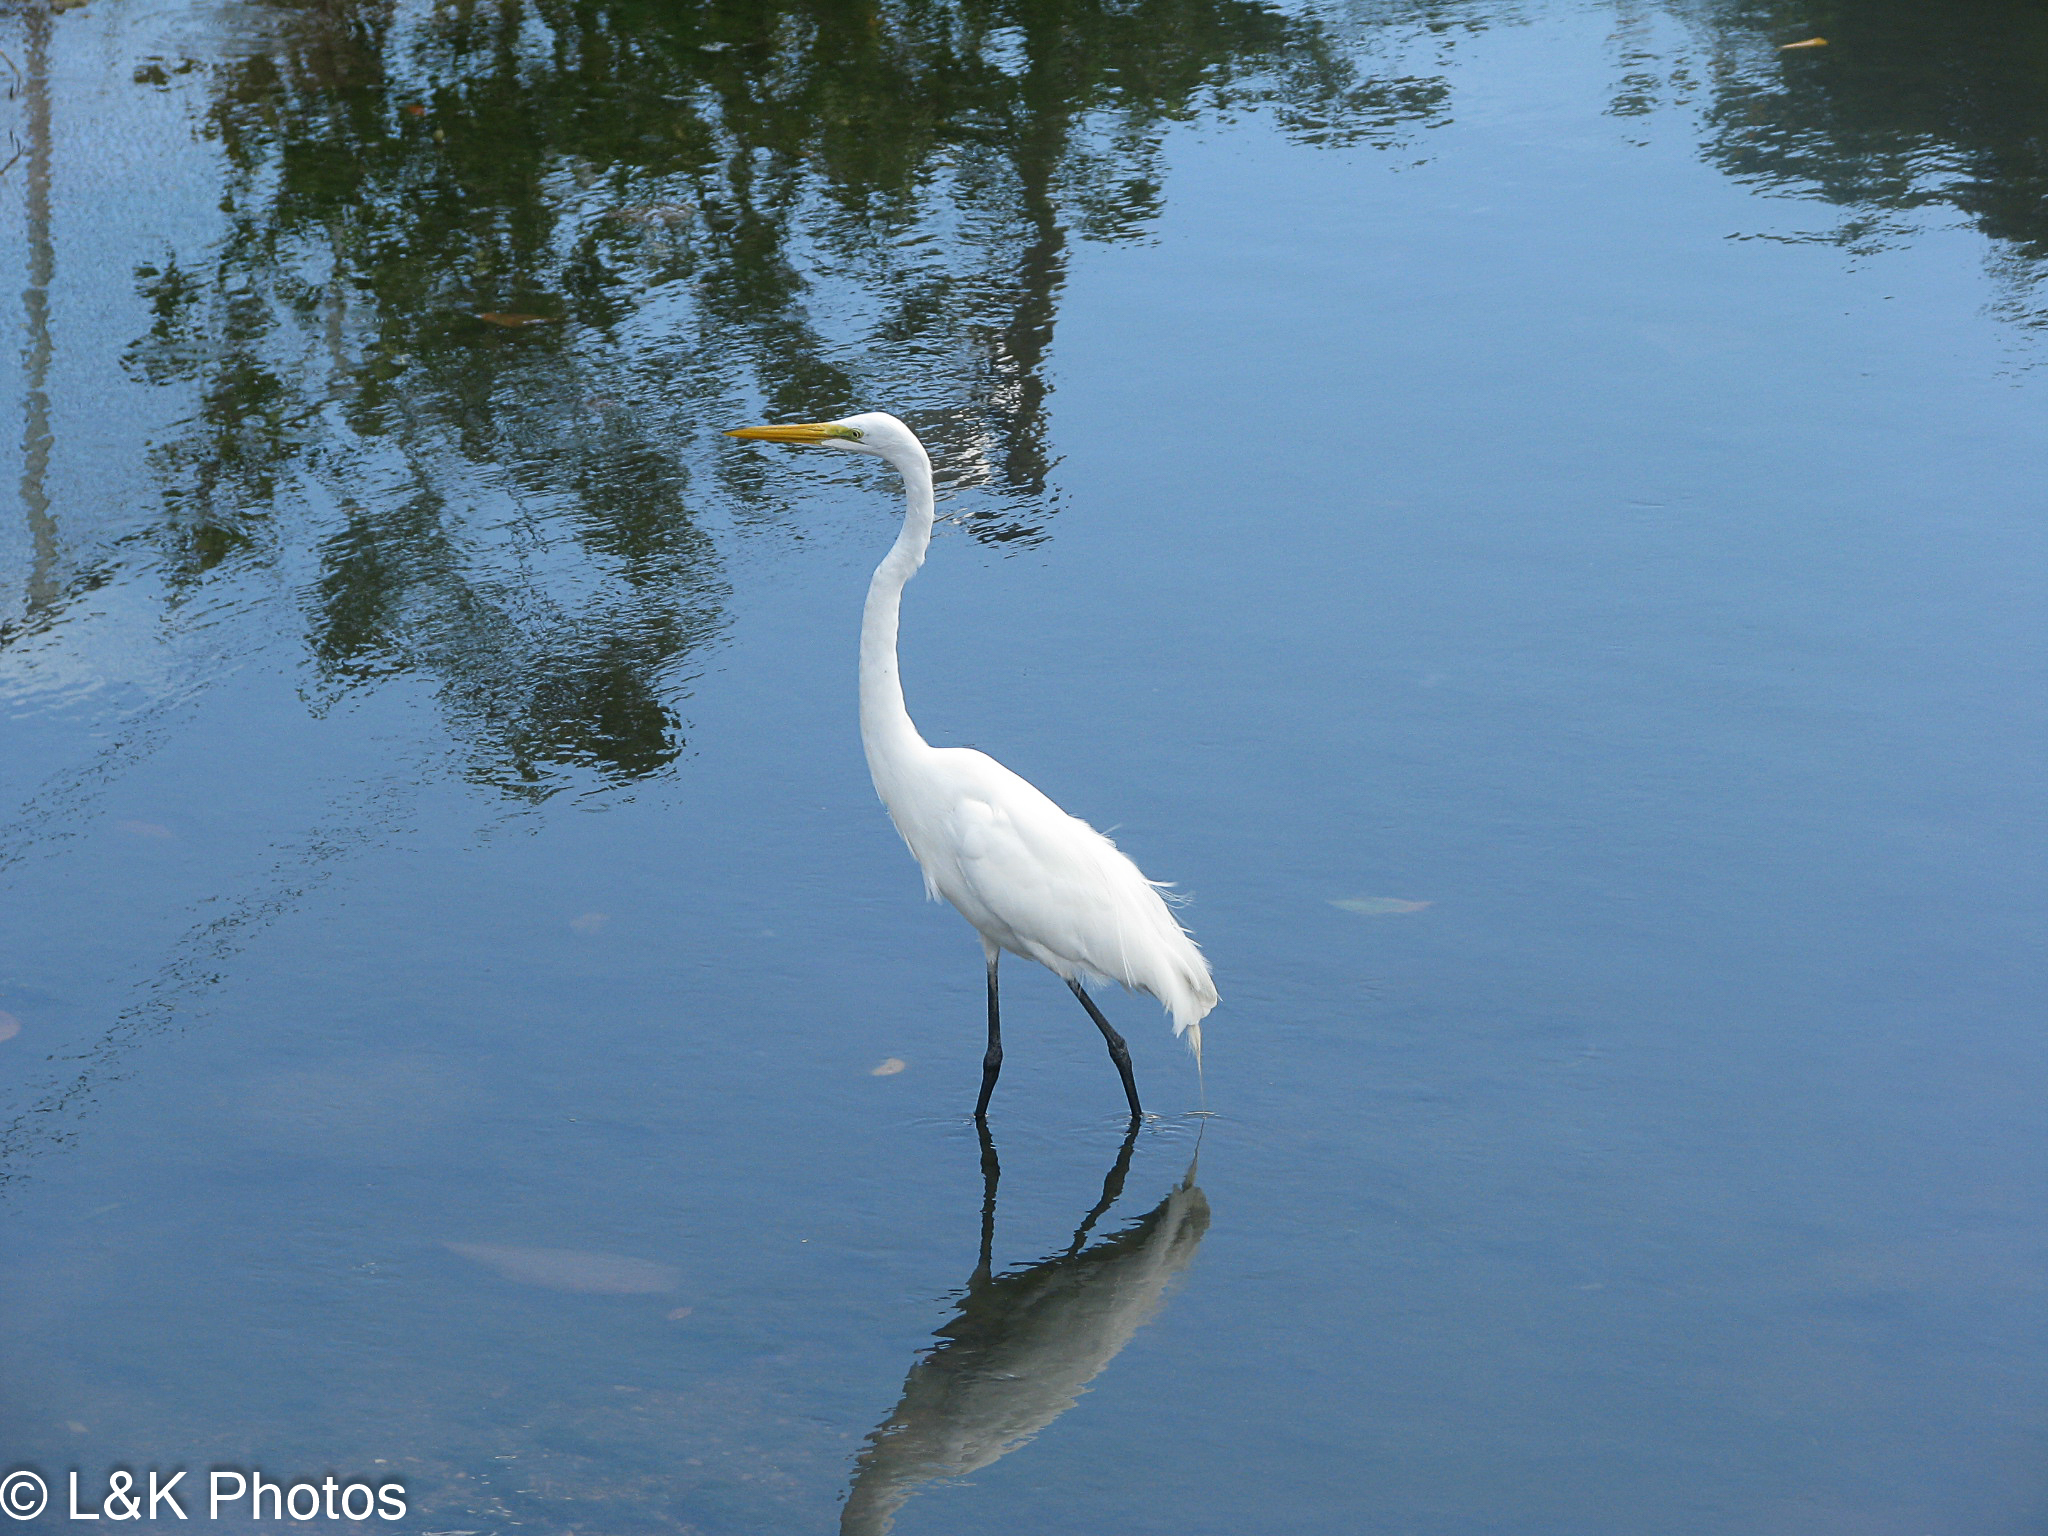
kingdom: Animalia
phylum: Chordata
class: Aves
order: Pelecaniformes
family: Ardeidae
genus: Ardea
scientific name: Ardea alba
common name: Great egret
